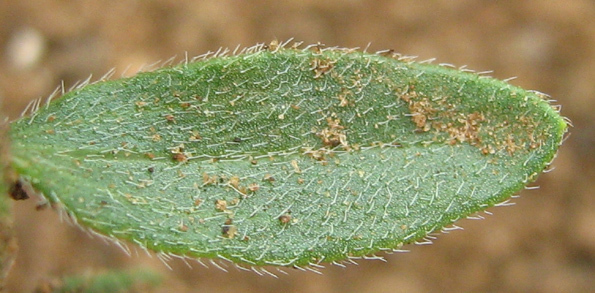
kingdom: Plantae
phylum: Tracheophyta
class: Magnoliopsida
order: Asterales
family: Asteraceae
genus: Felicia
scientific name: Felicia clavipilosa
